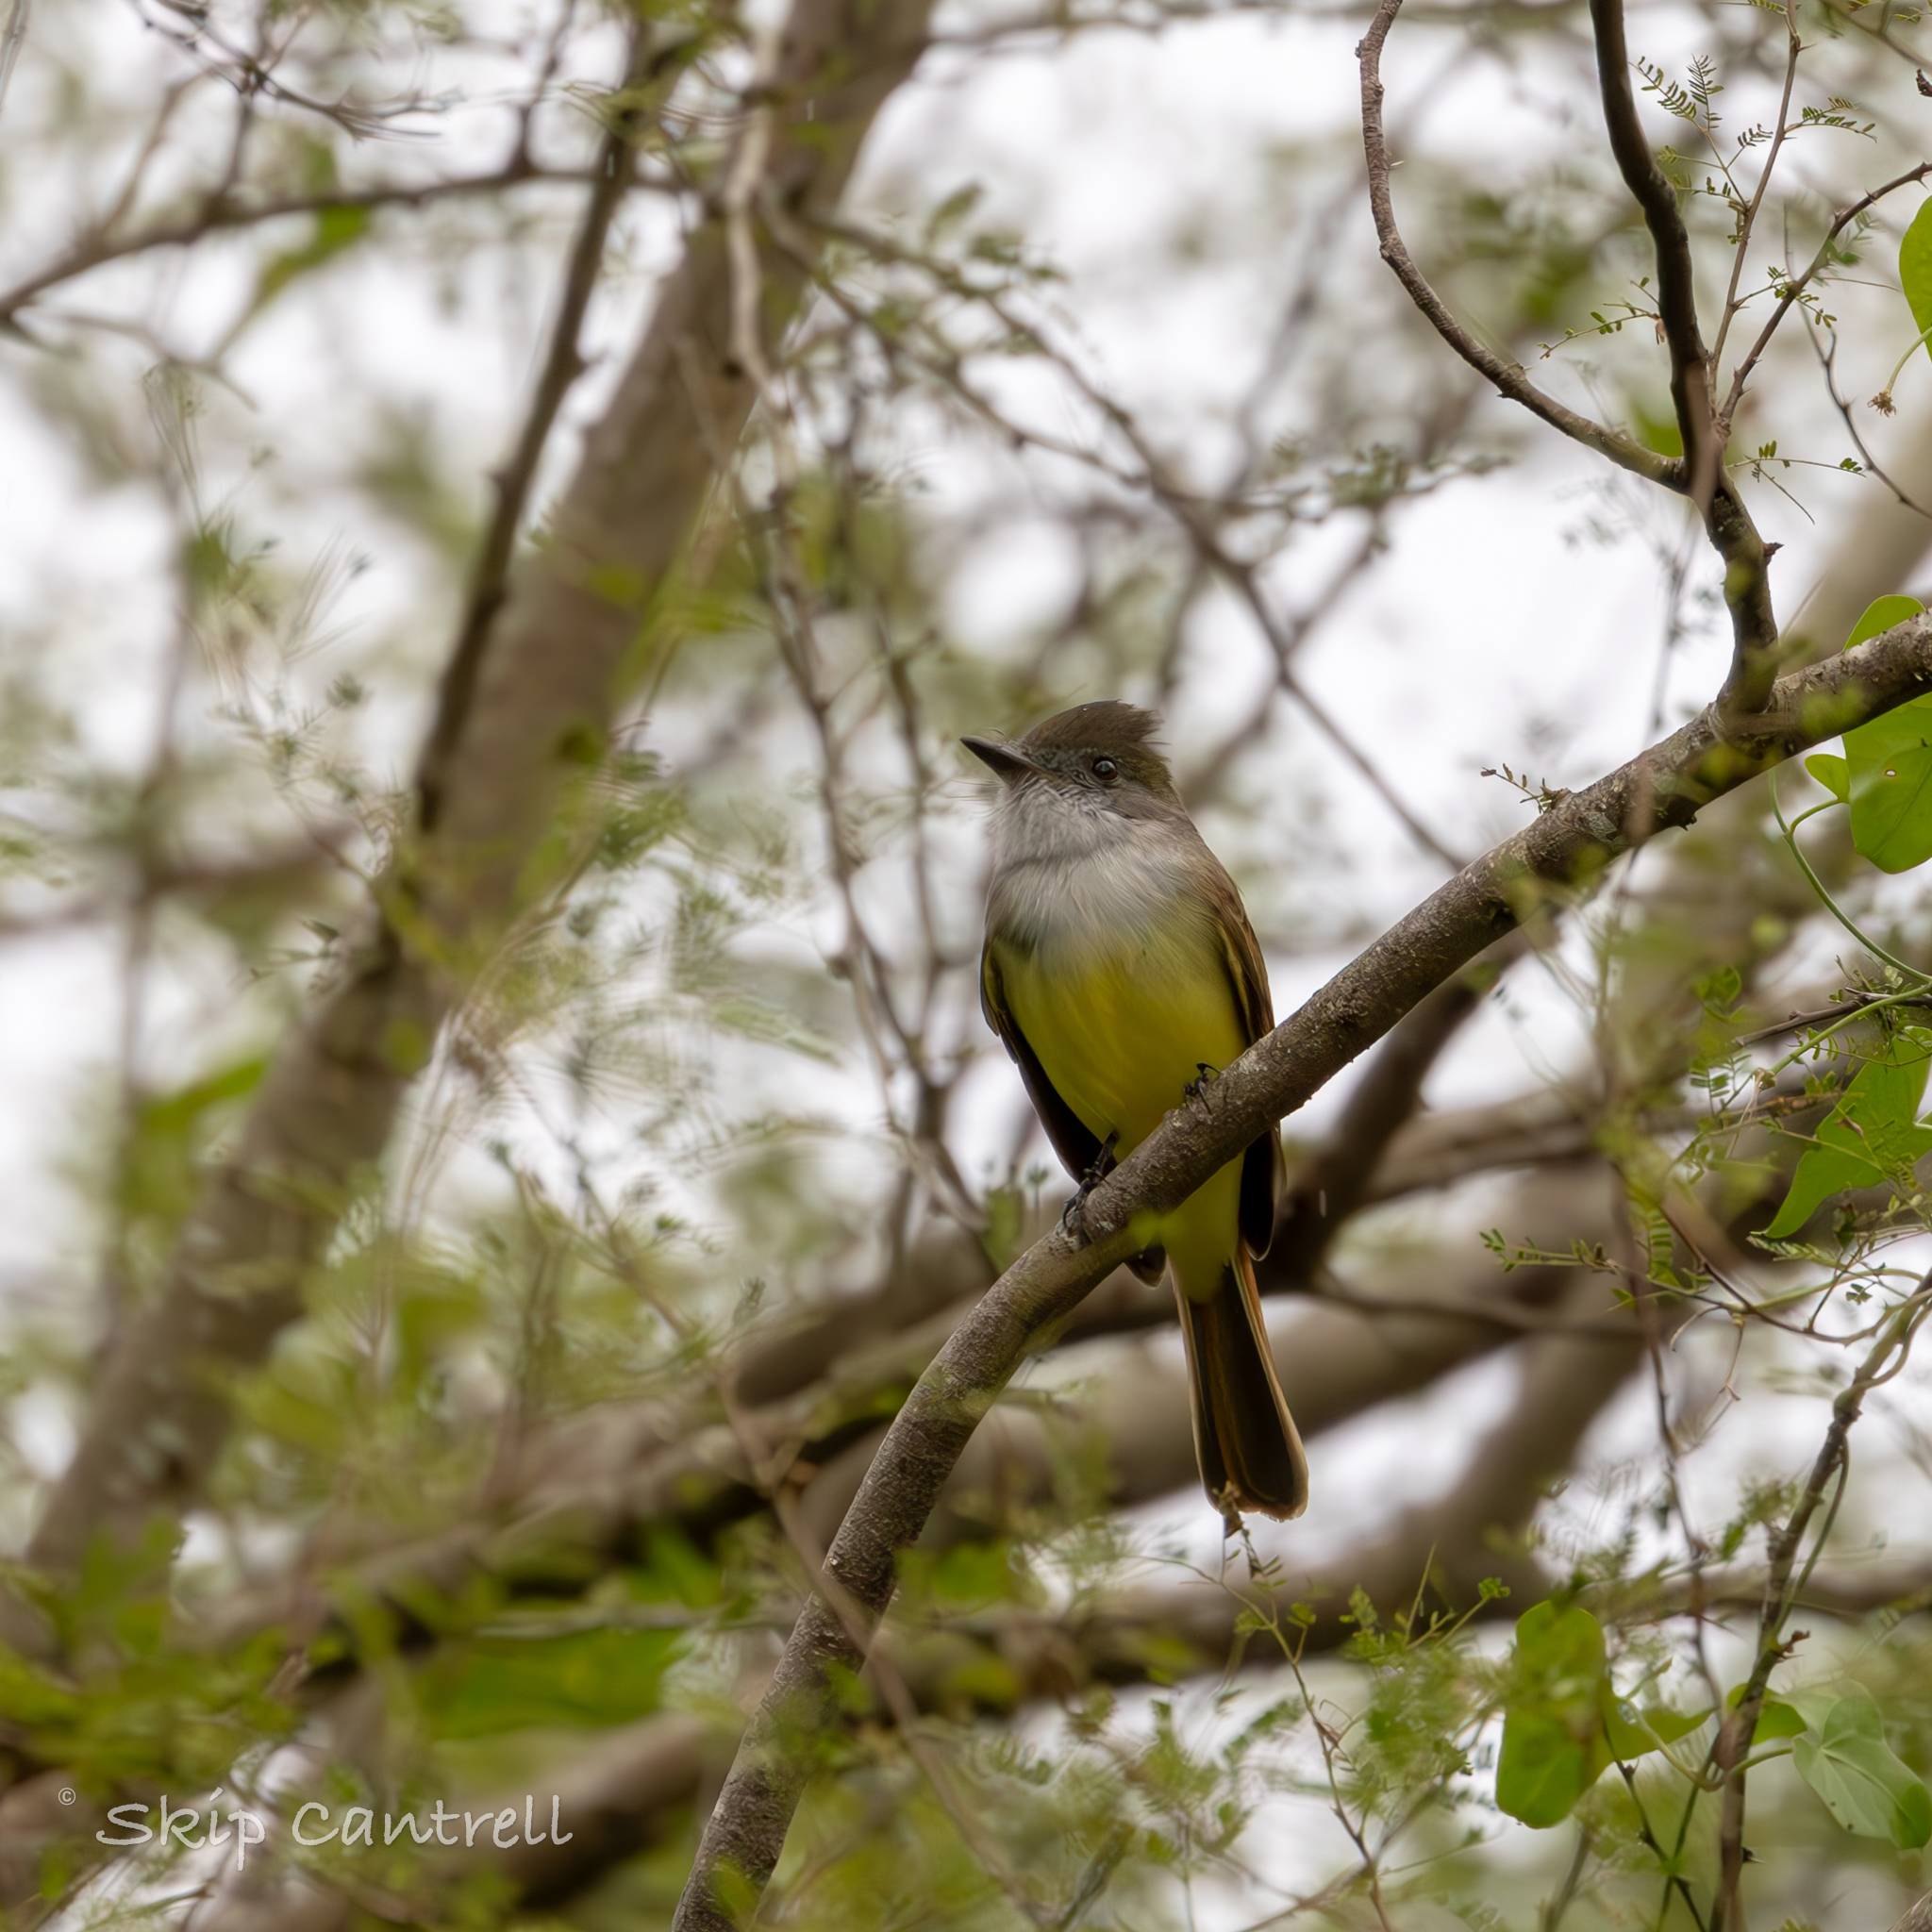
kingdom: Animalia
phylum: Chordata
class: Aves
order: Passeriformes
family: Tyrannidae
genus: Myiarchus
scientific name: Myiarchus tuberculifer
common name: Dusky-capped flycatcher
